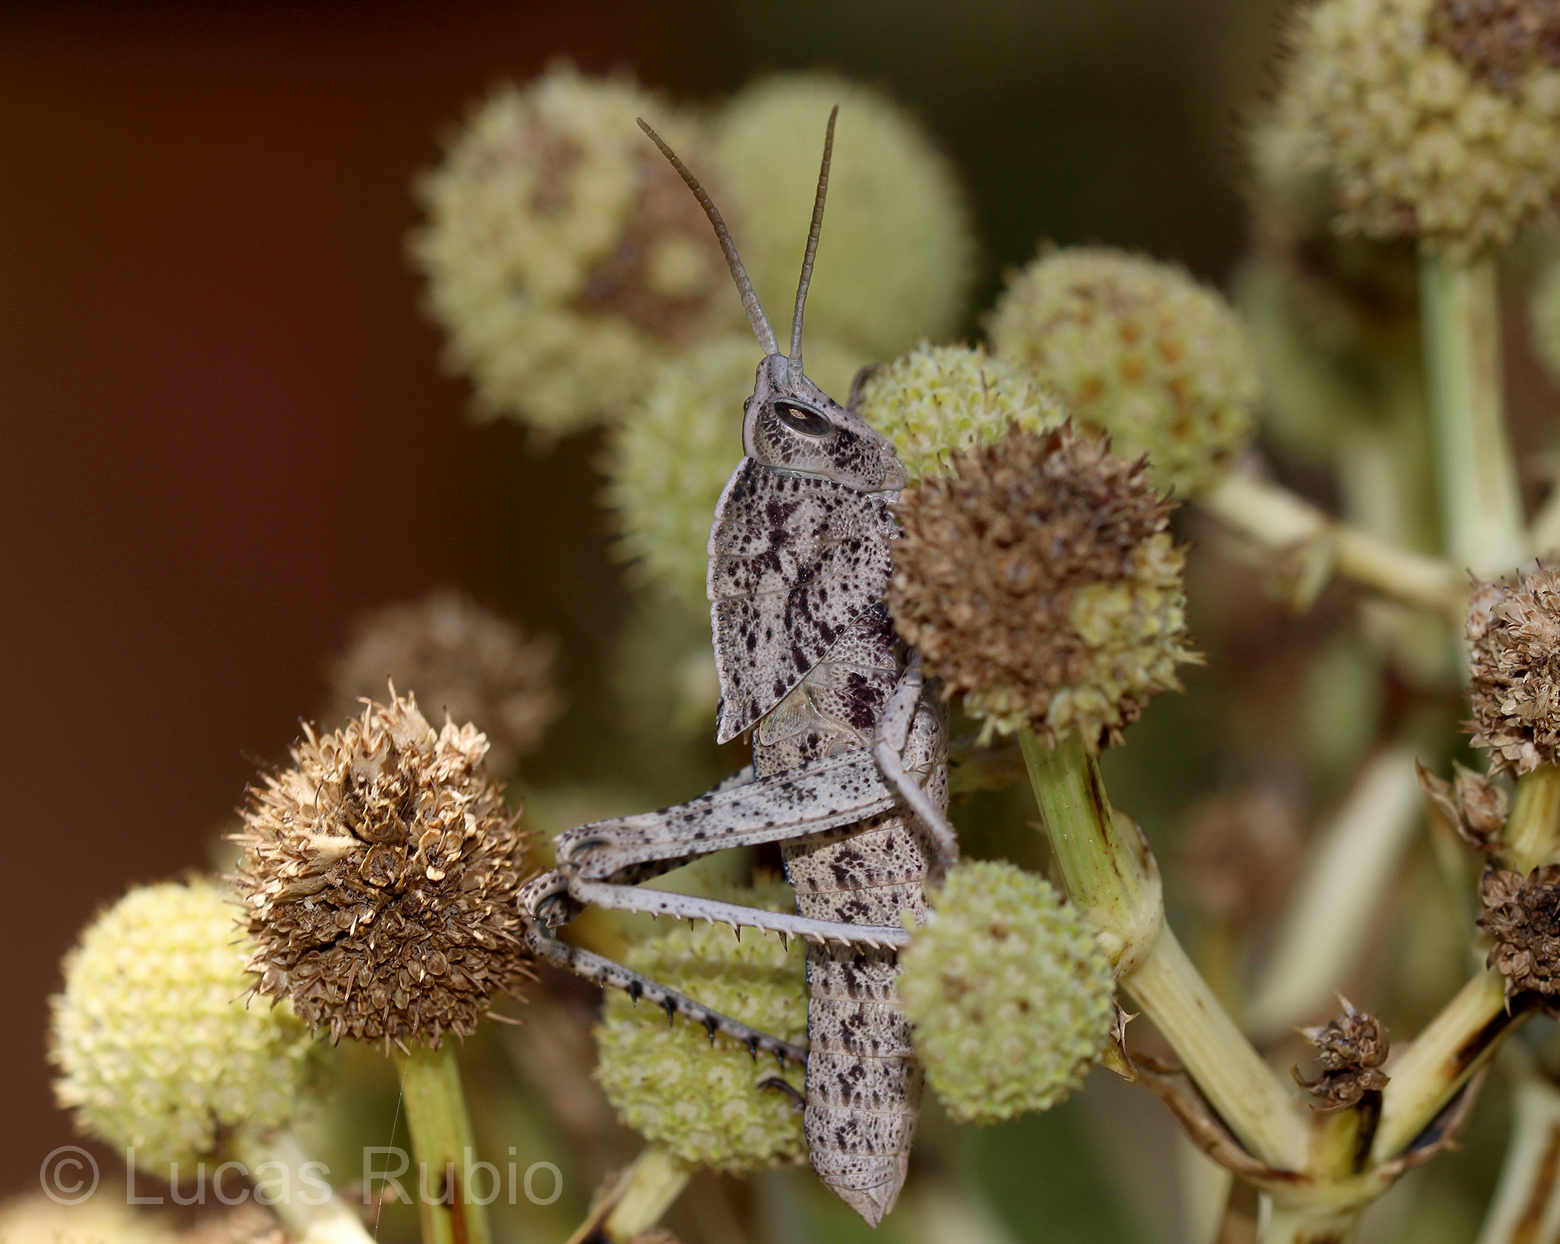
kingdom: Animalia
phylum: Arthropoda
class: Insecta
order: Orthoptera
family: Romaleidae
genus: Staleochlora
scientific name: Staleochlora viridicata
